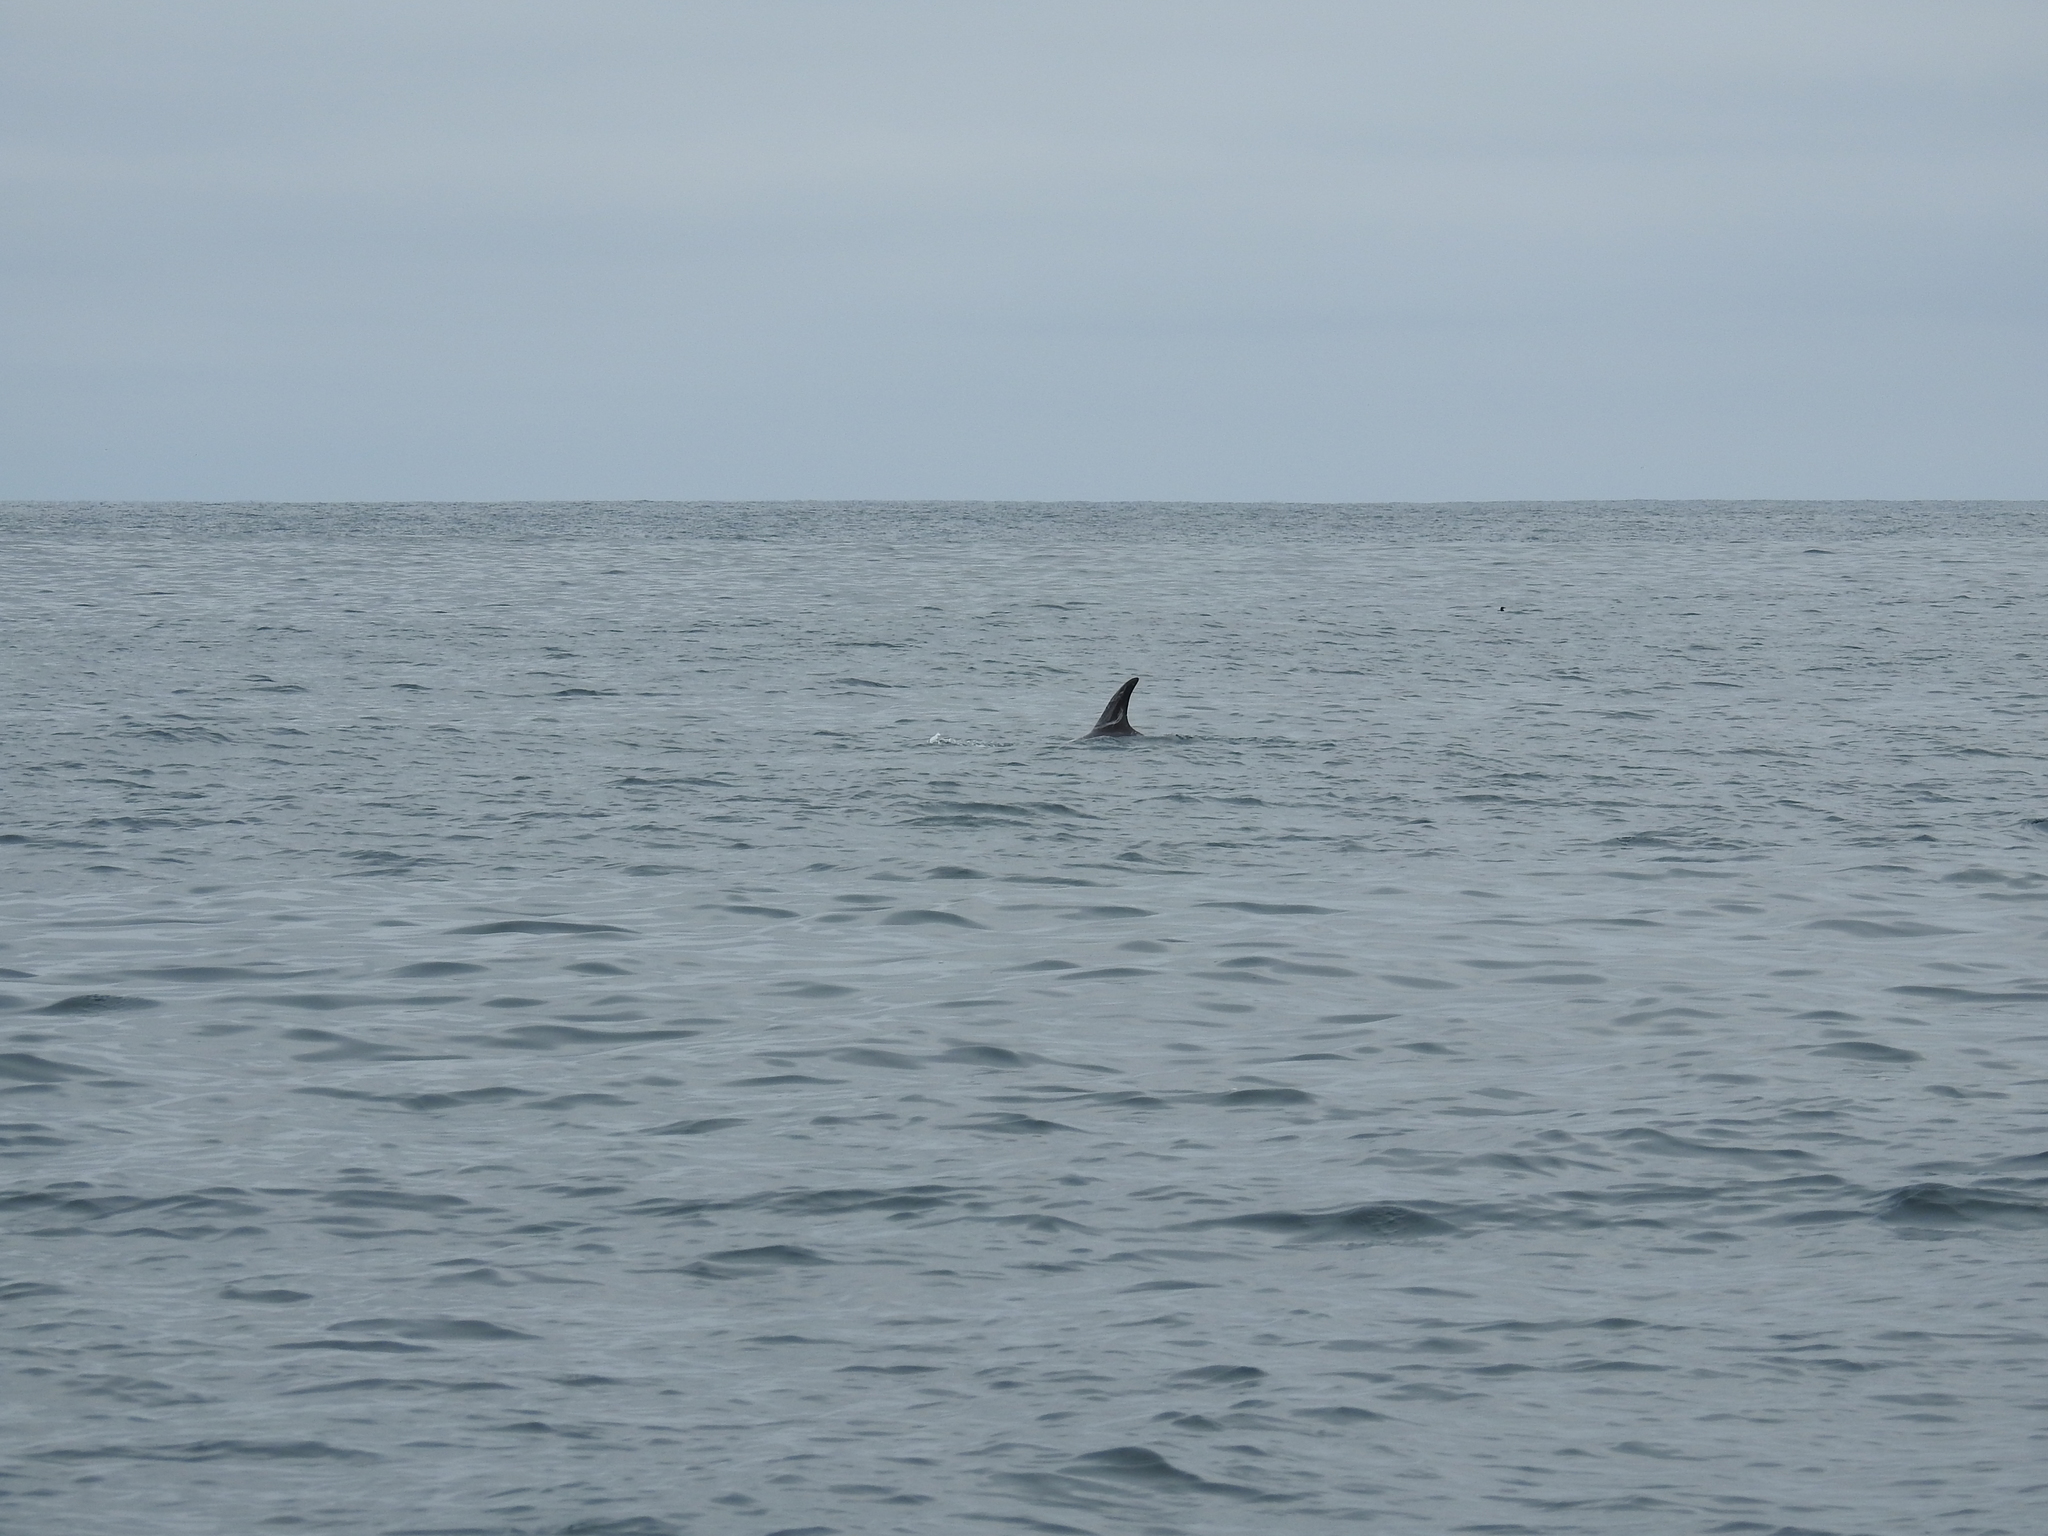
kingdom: Animalia
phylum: Chordata
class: Mammalia
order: Cetacea
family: Delphinidae
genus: Grampus
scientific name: Grampus griseus
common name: Risso's dolphin
